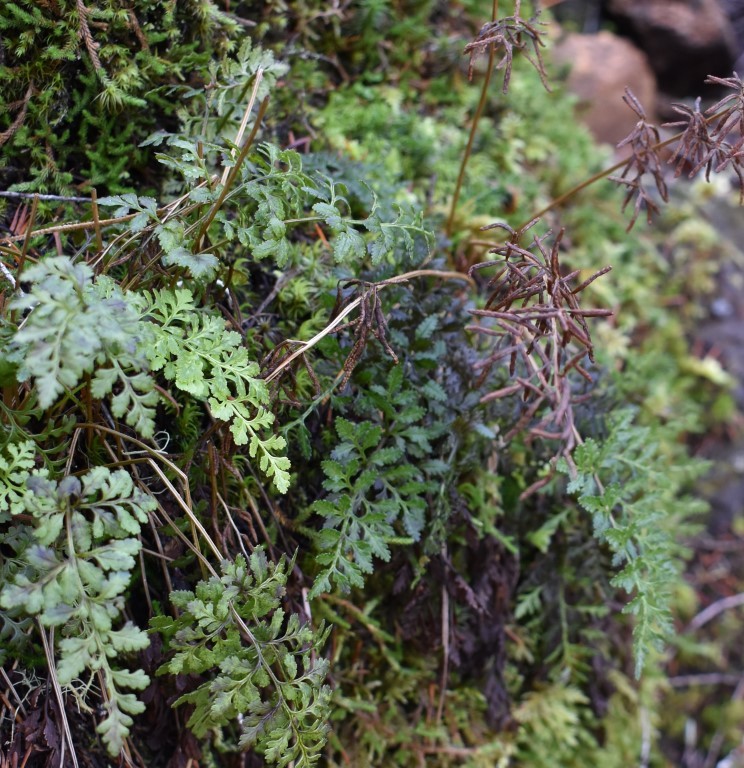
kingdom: Plantae
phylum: Tracheophyta
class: Polypodiopsida
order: Polypodiales
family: Pteridaceae
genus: Cryptogramma
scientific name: Cryptogramma acrostichoides
